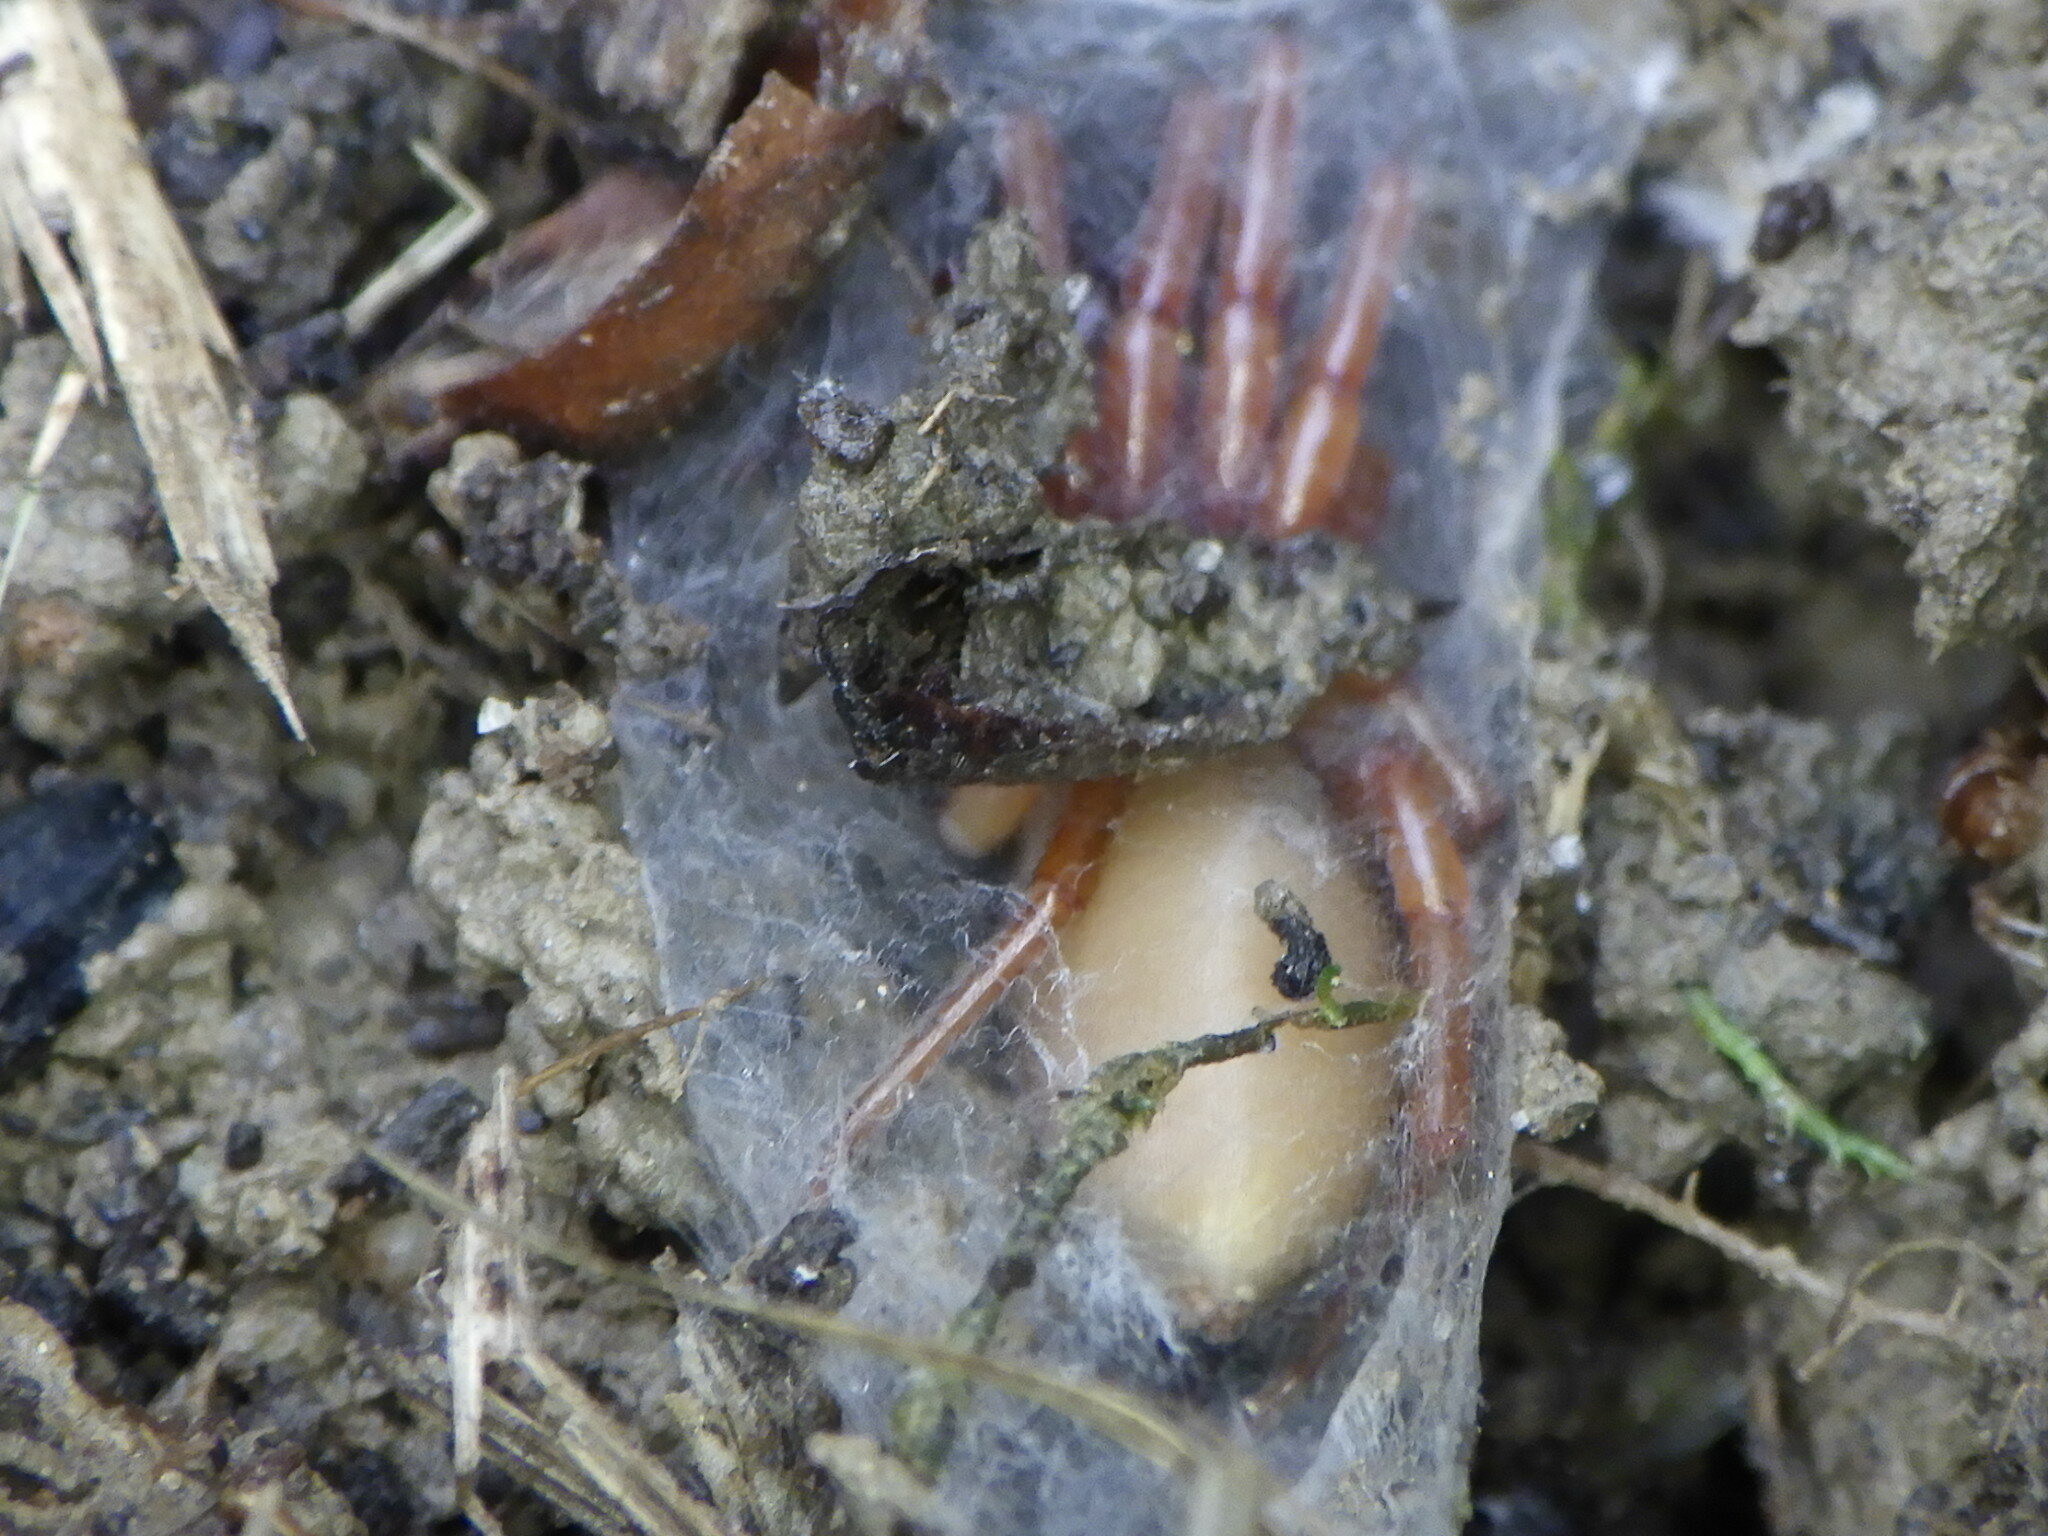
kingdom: Animalia
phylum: Arthropoda
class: Arachnida
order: Araneae
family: Dysderidae
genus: Dysdera
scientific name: Dysdera crocata
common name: Woodlouse spider
